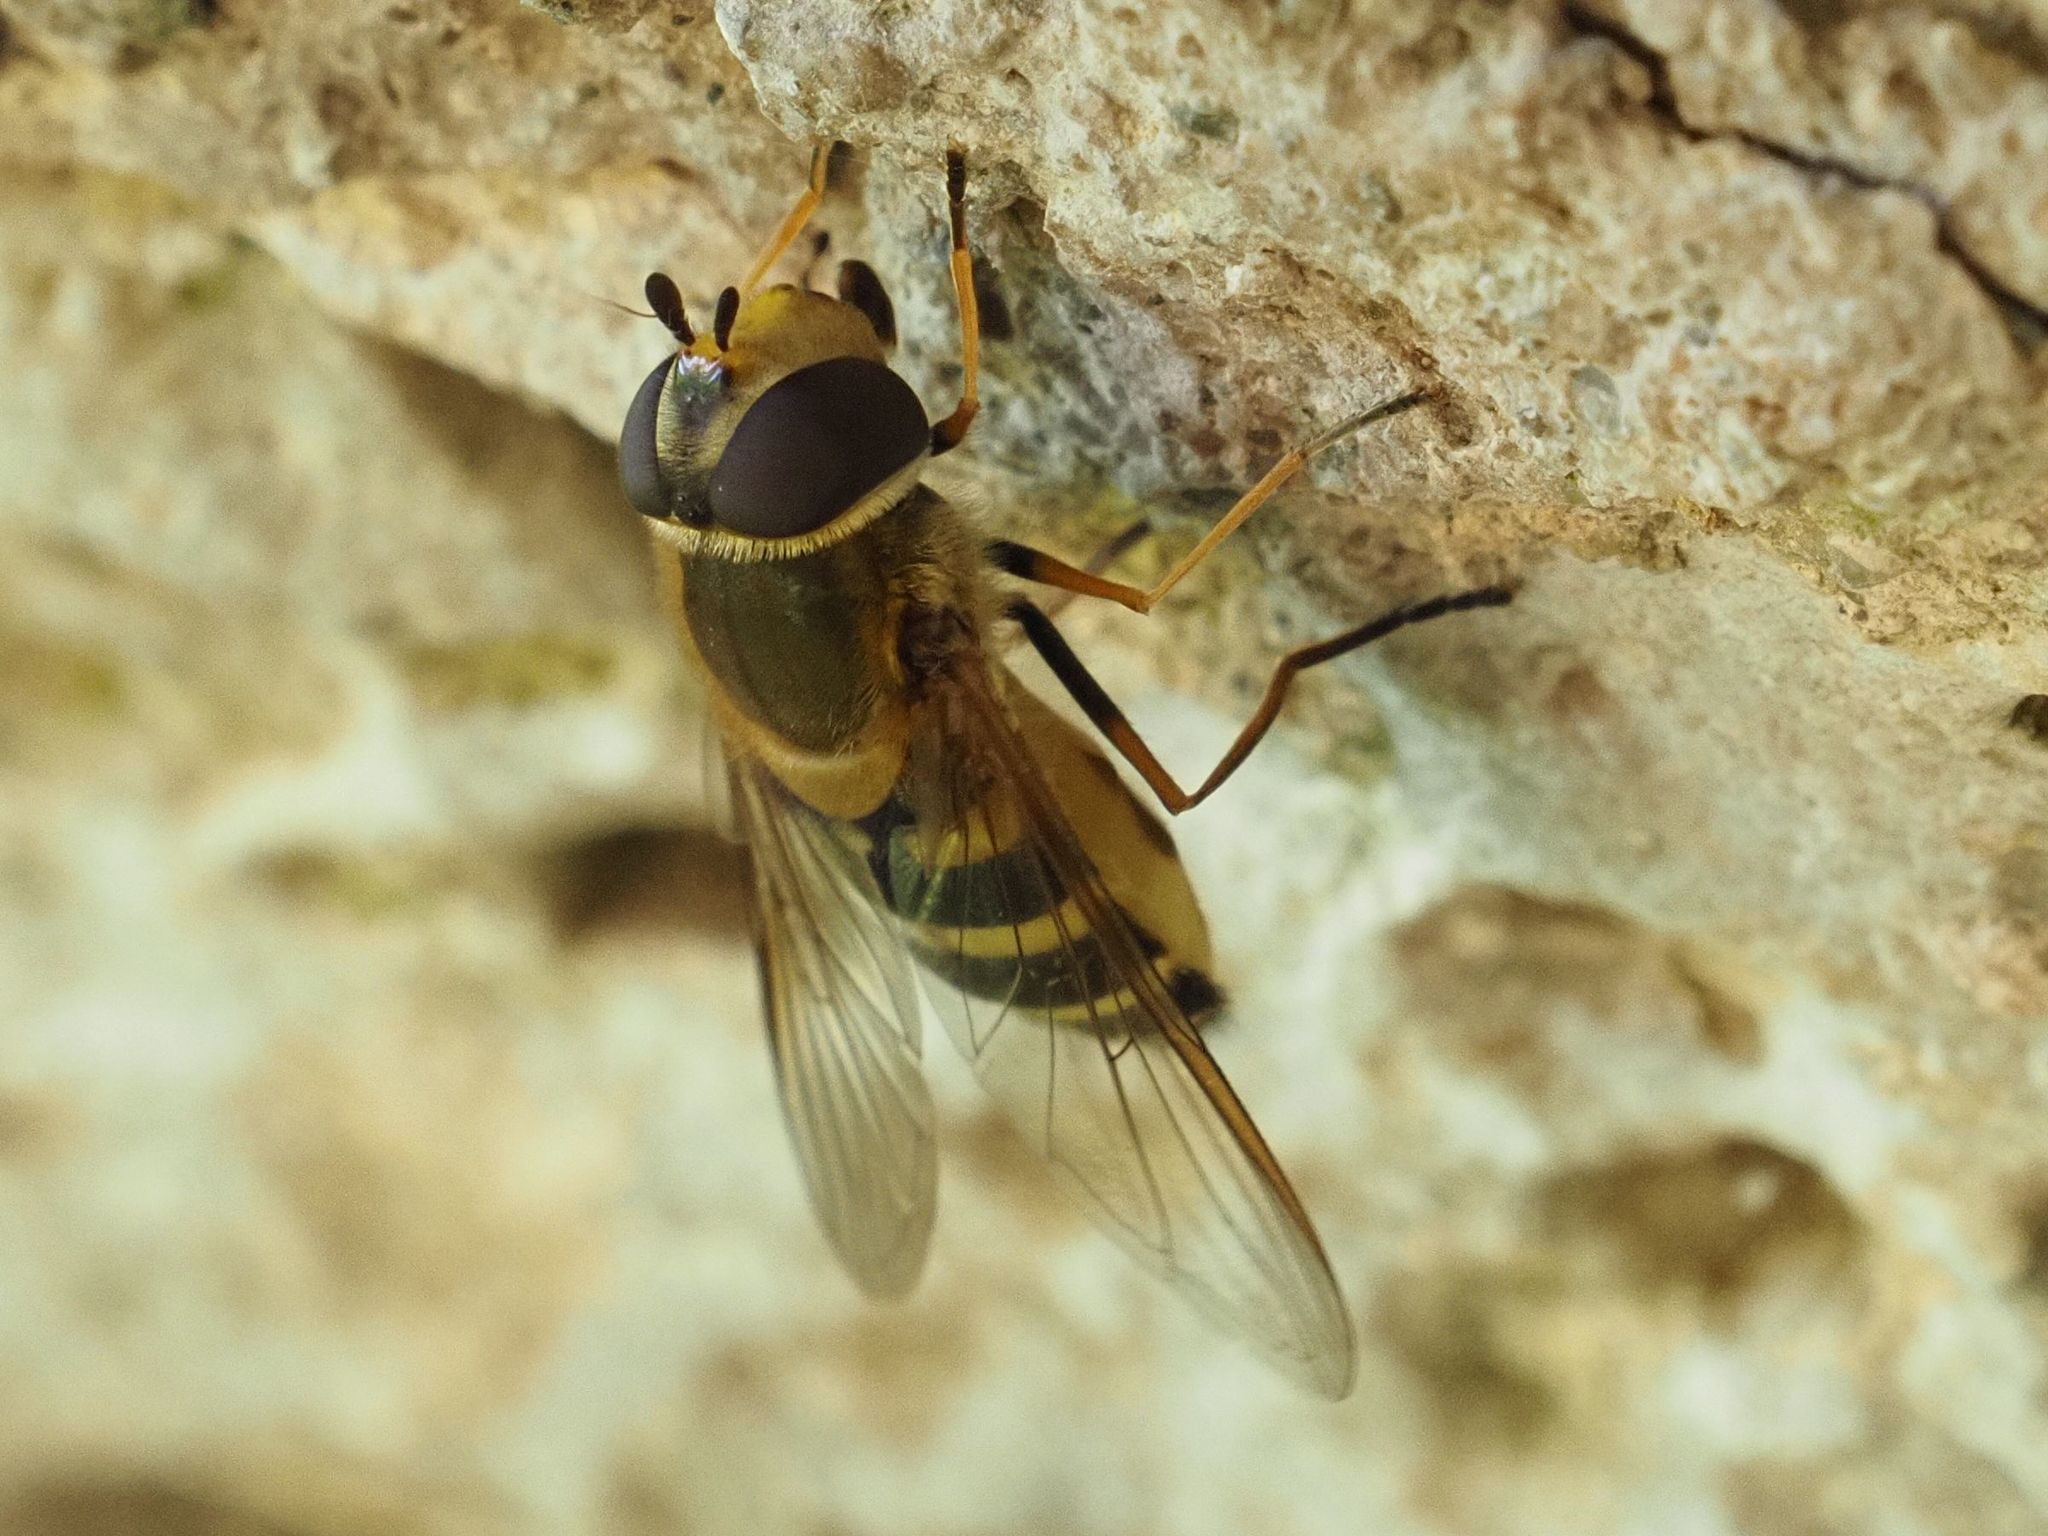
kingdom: Animalia
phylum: Arthropoda
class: Insecta
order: Diptera
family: Syrphidae
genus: Syrphus
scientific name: Syrphus vitripennis
